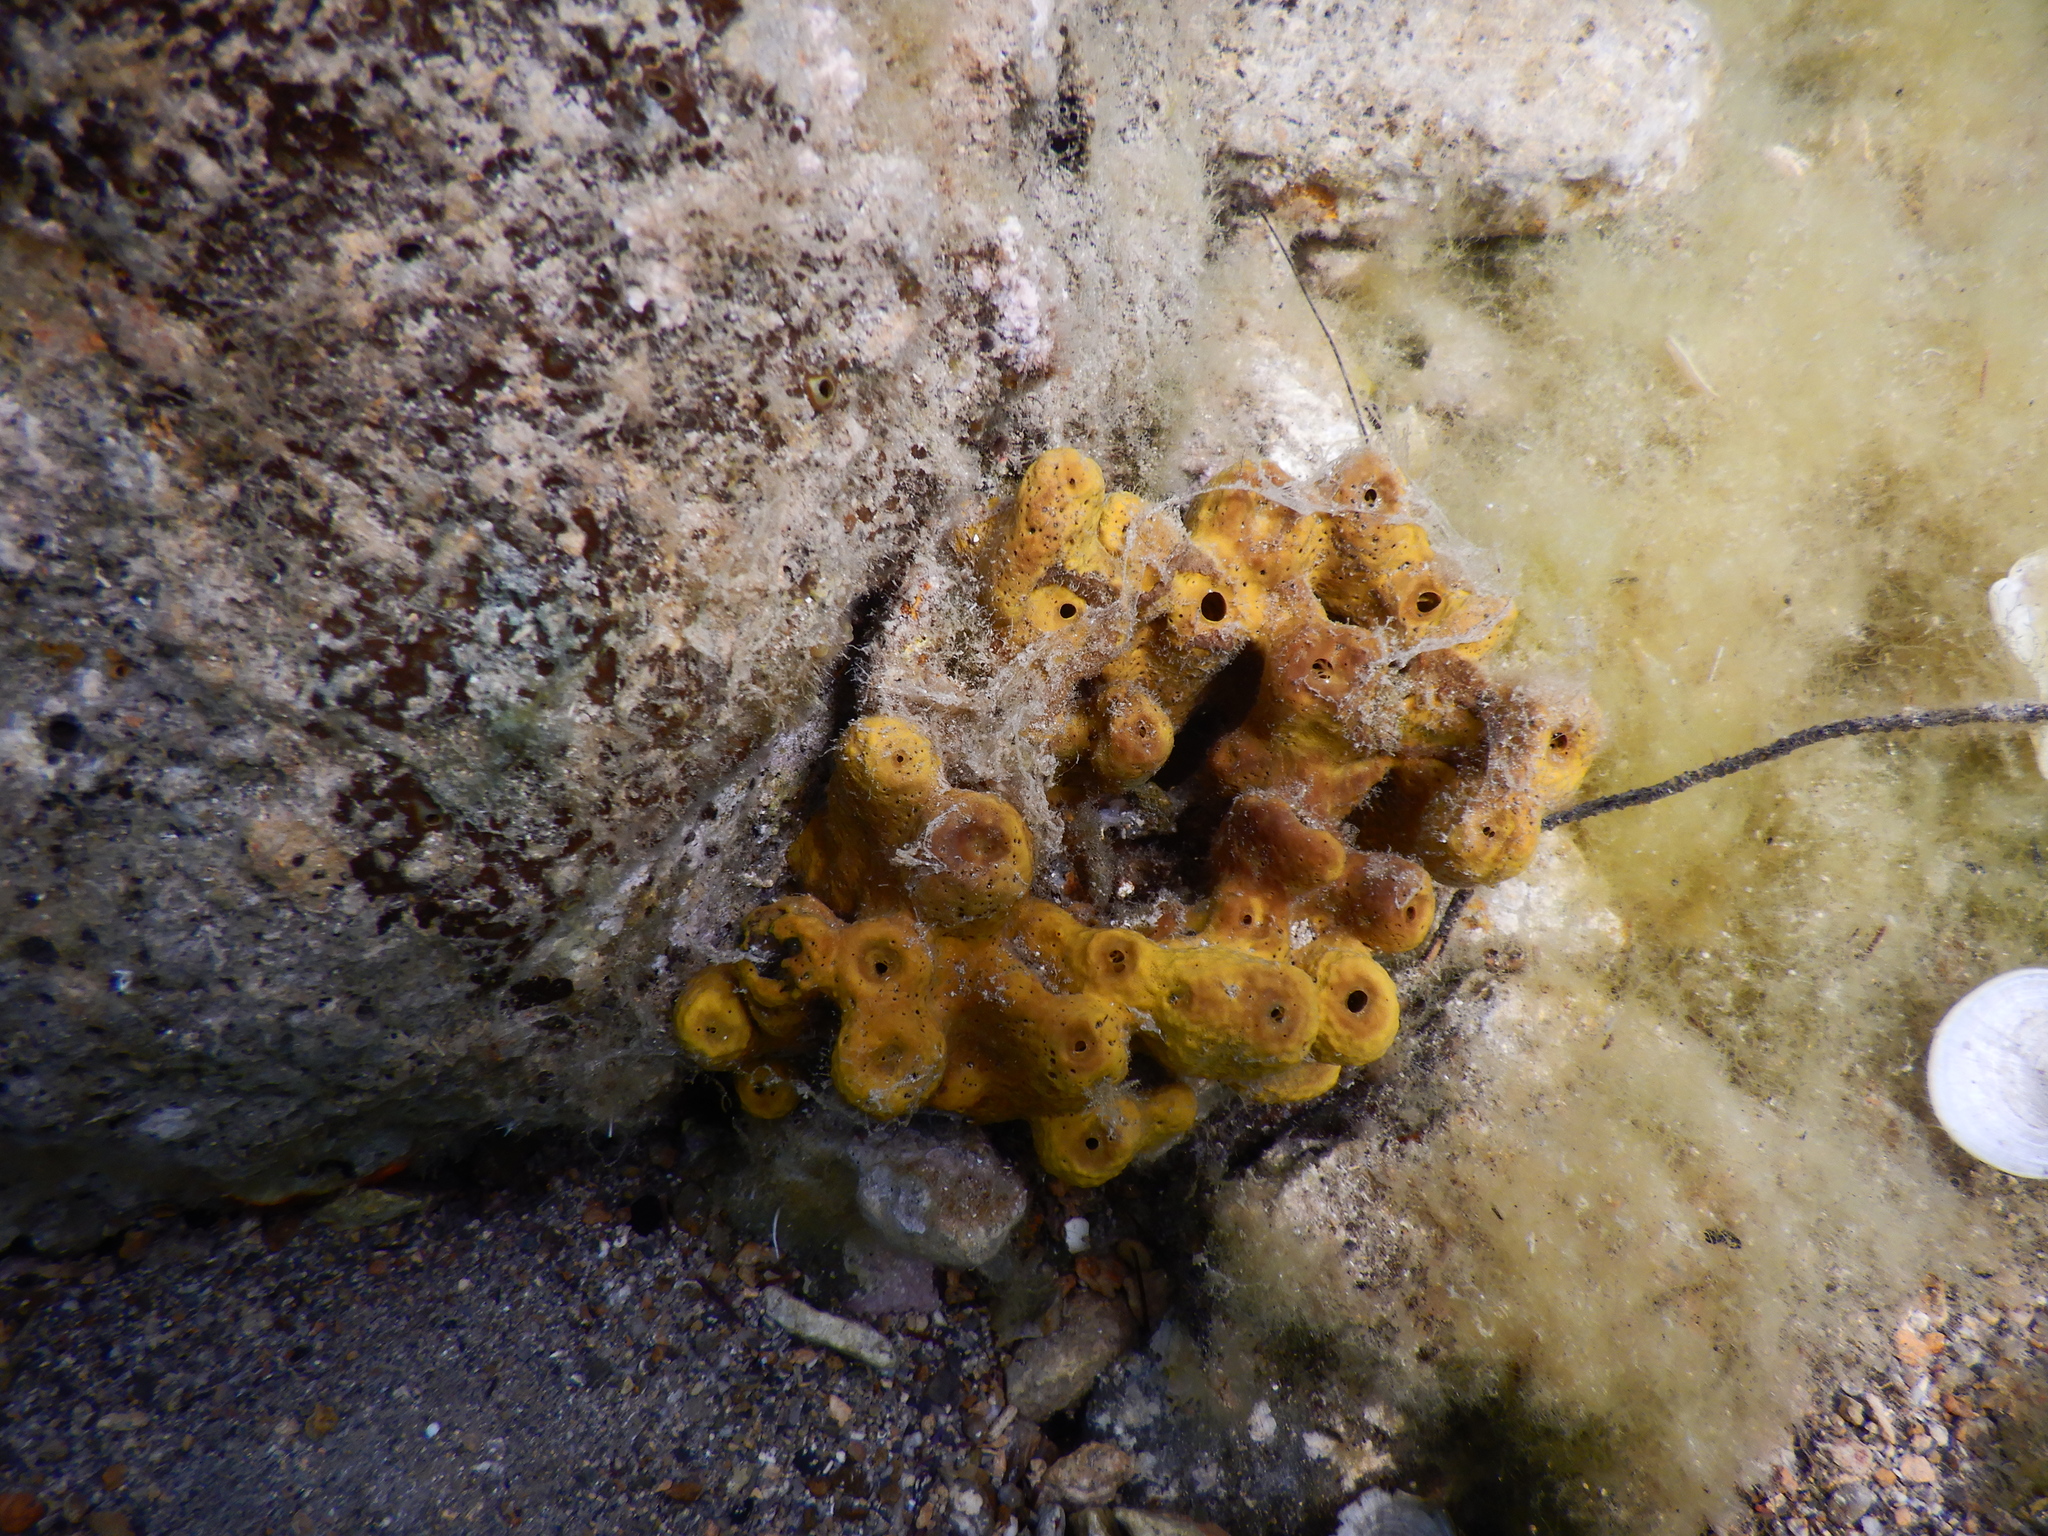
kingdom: Animalia
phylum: Porifera
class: Demospongiae
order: Verongiida
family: Aplysinidae
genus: Aplysina
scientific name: Aplysina aerophoba
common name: Aureate sponge
